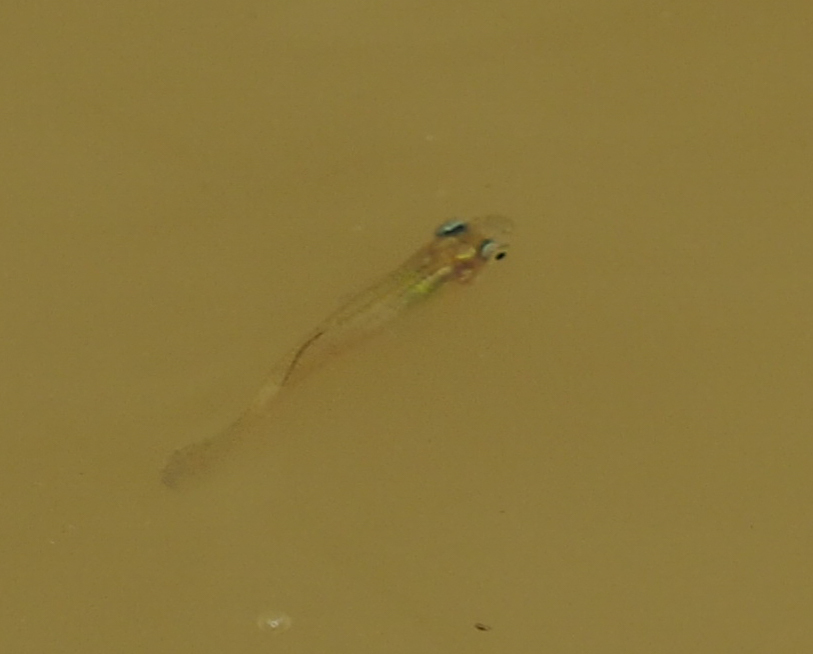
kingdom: Animalia
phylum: Chordata
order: Cyprinodontiformes
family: Poeciliidae
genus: Gambusia
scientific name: Gambusia holbrooki
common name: Eastern mosquitofish
